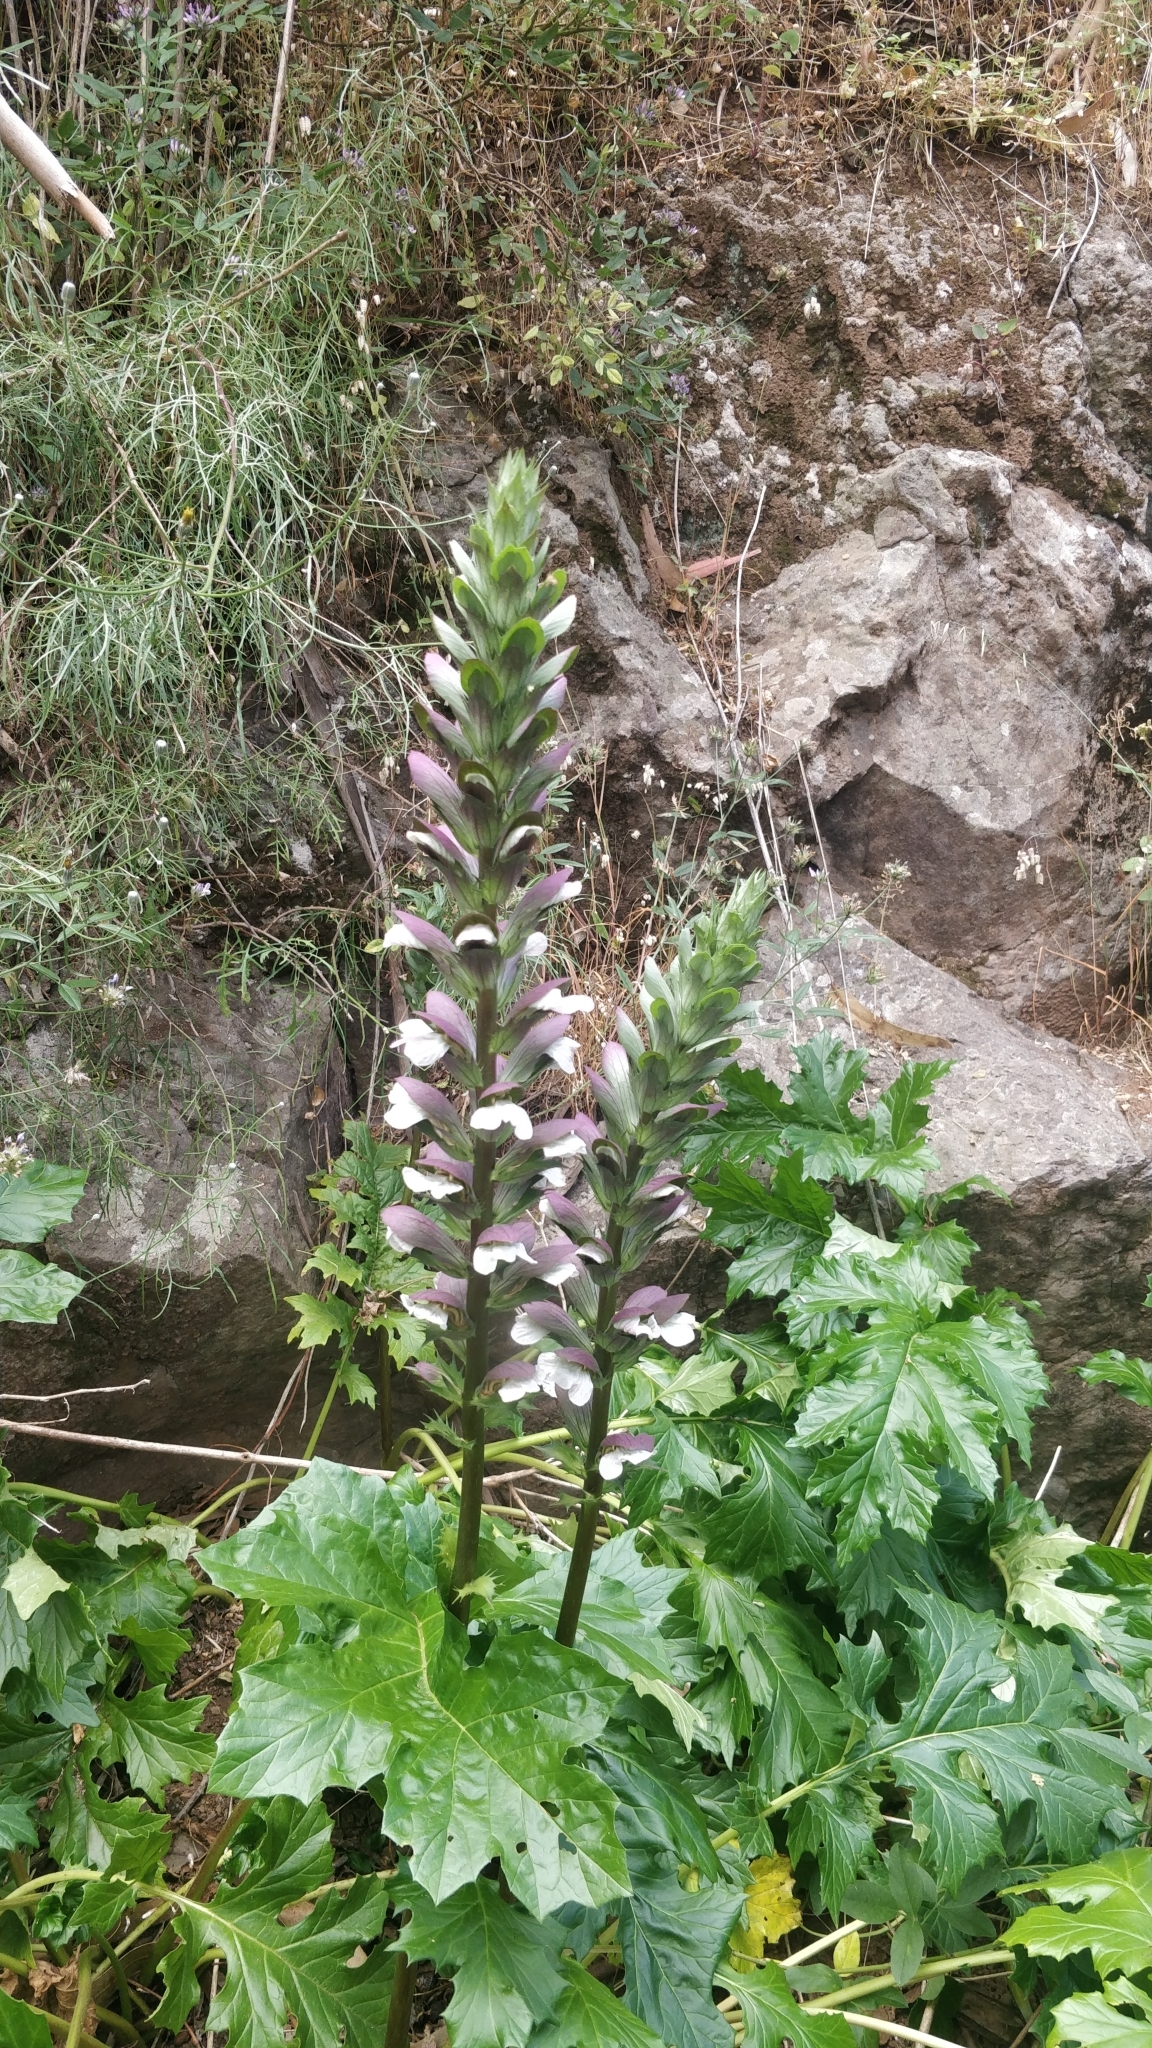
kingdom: Plantae
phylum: Tracheophyta
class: Magnoliopsida
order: Lamiales
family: Acanthaceae
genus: Acanthus
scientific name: Acanthus mollis
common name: Bear's-breech
